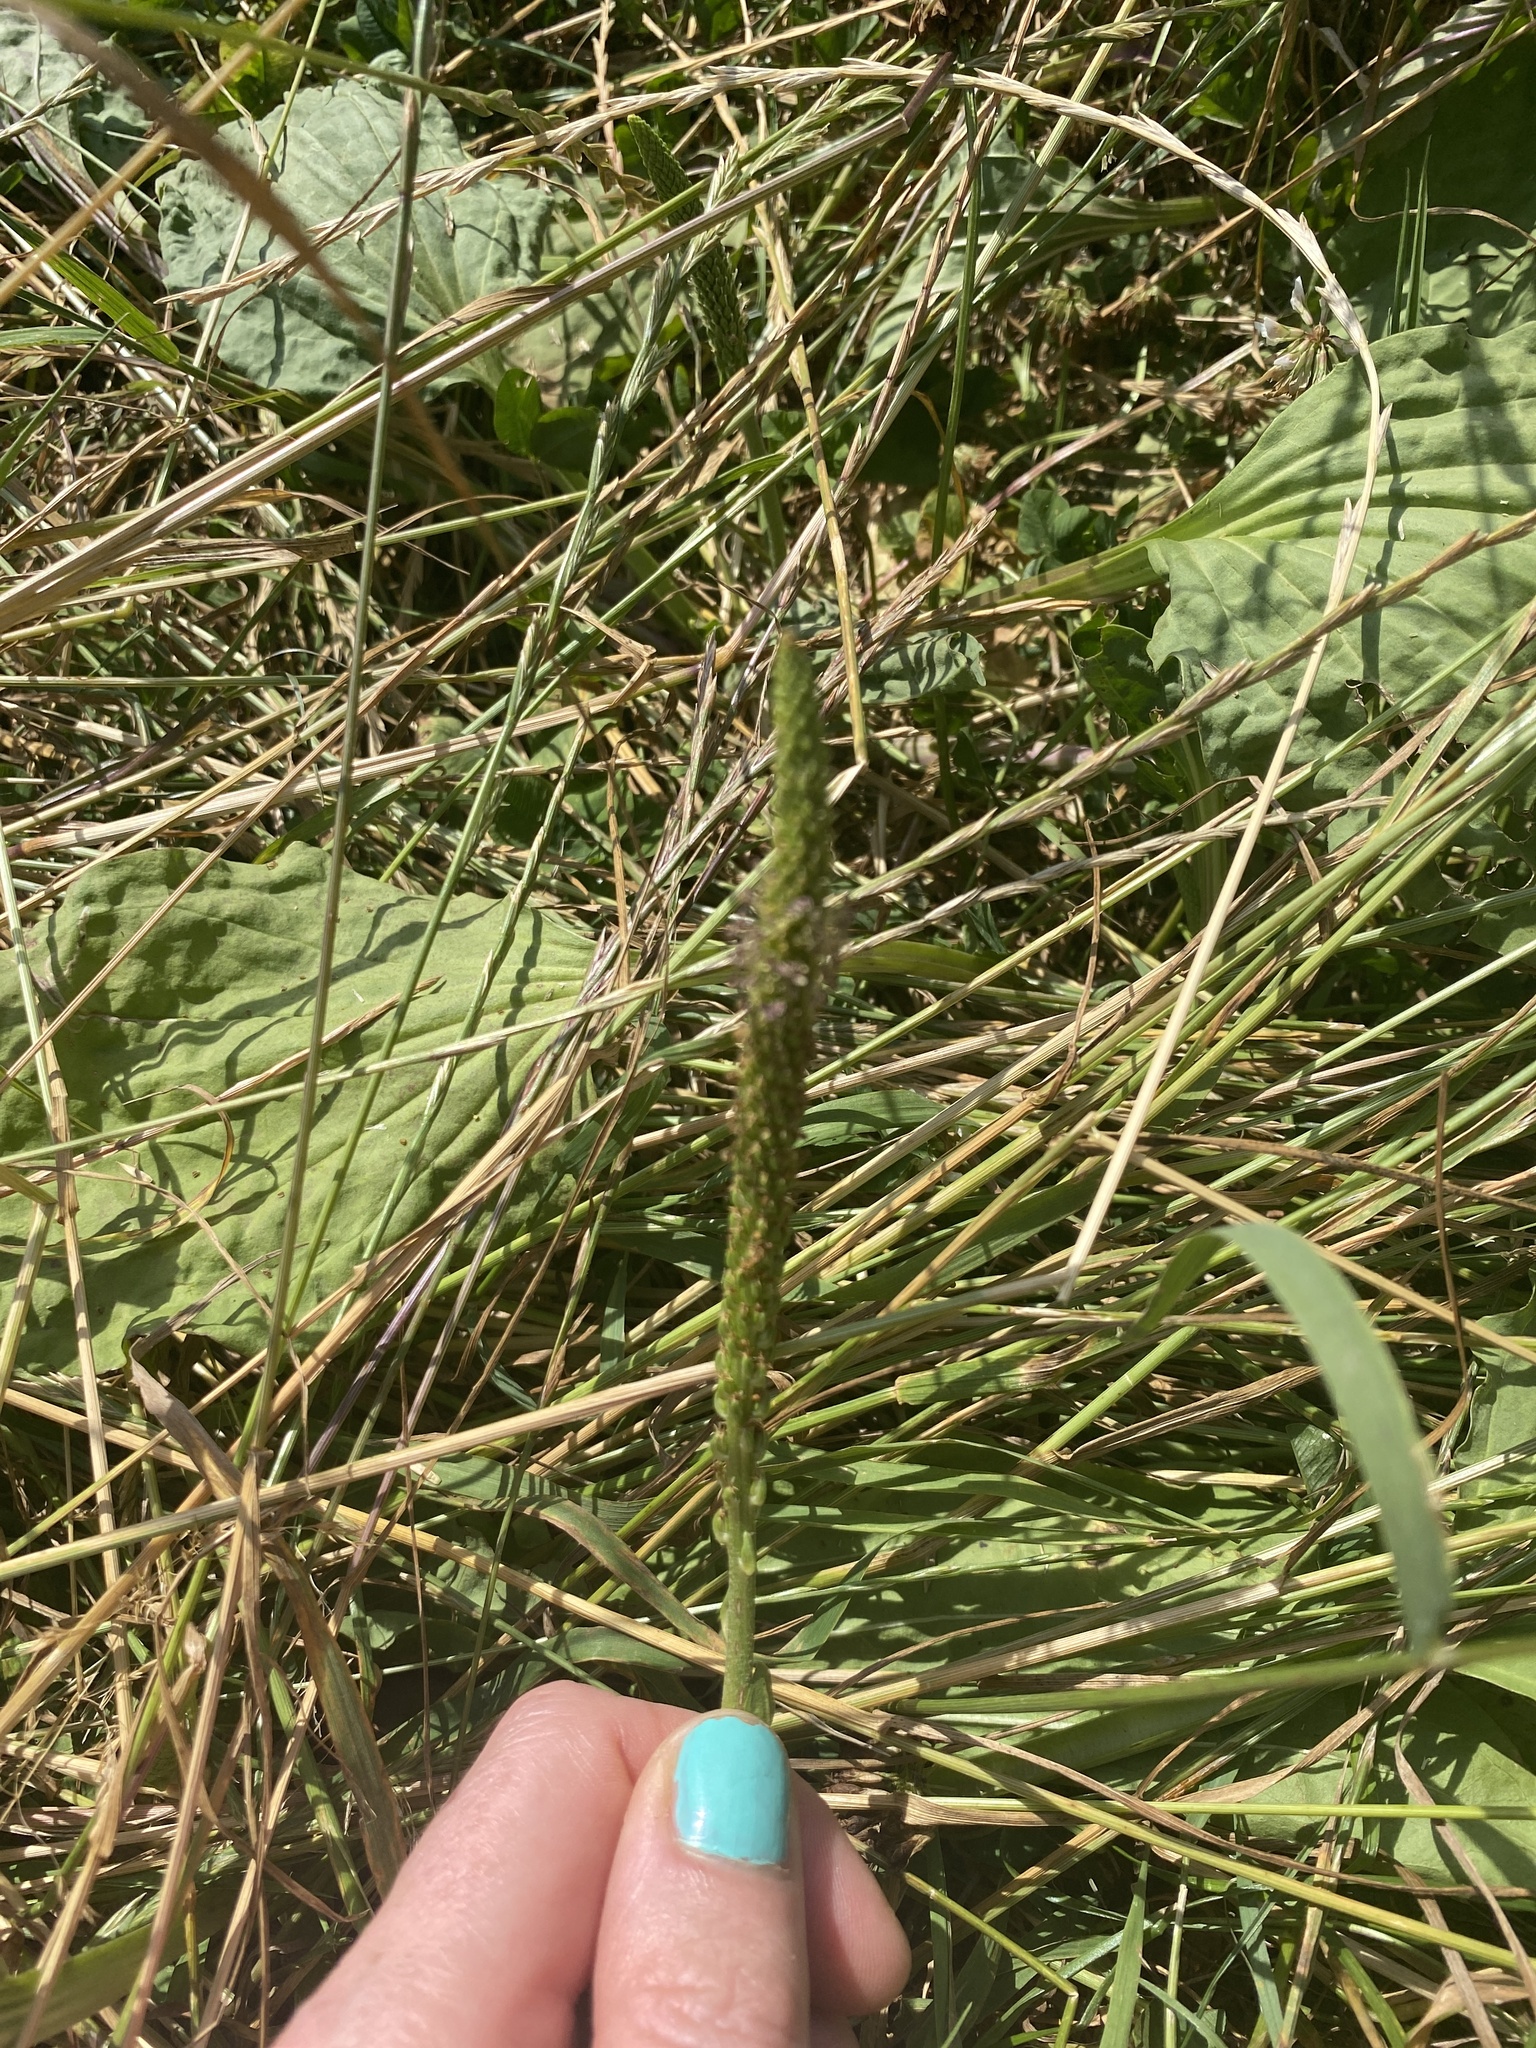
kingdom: Plantae
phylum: Tracheophyta
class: Magnoliopsida
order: Lamiales
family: Plantaginaceae
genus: Plantago
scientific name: Plantago major
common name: Common plantain
